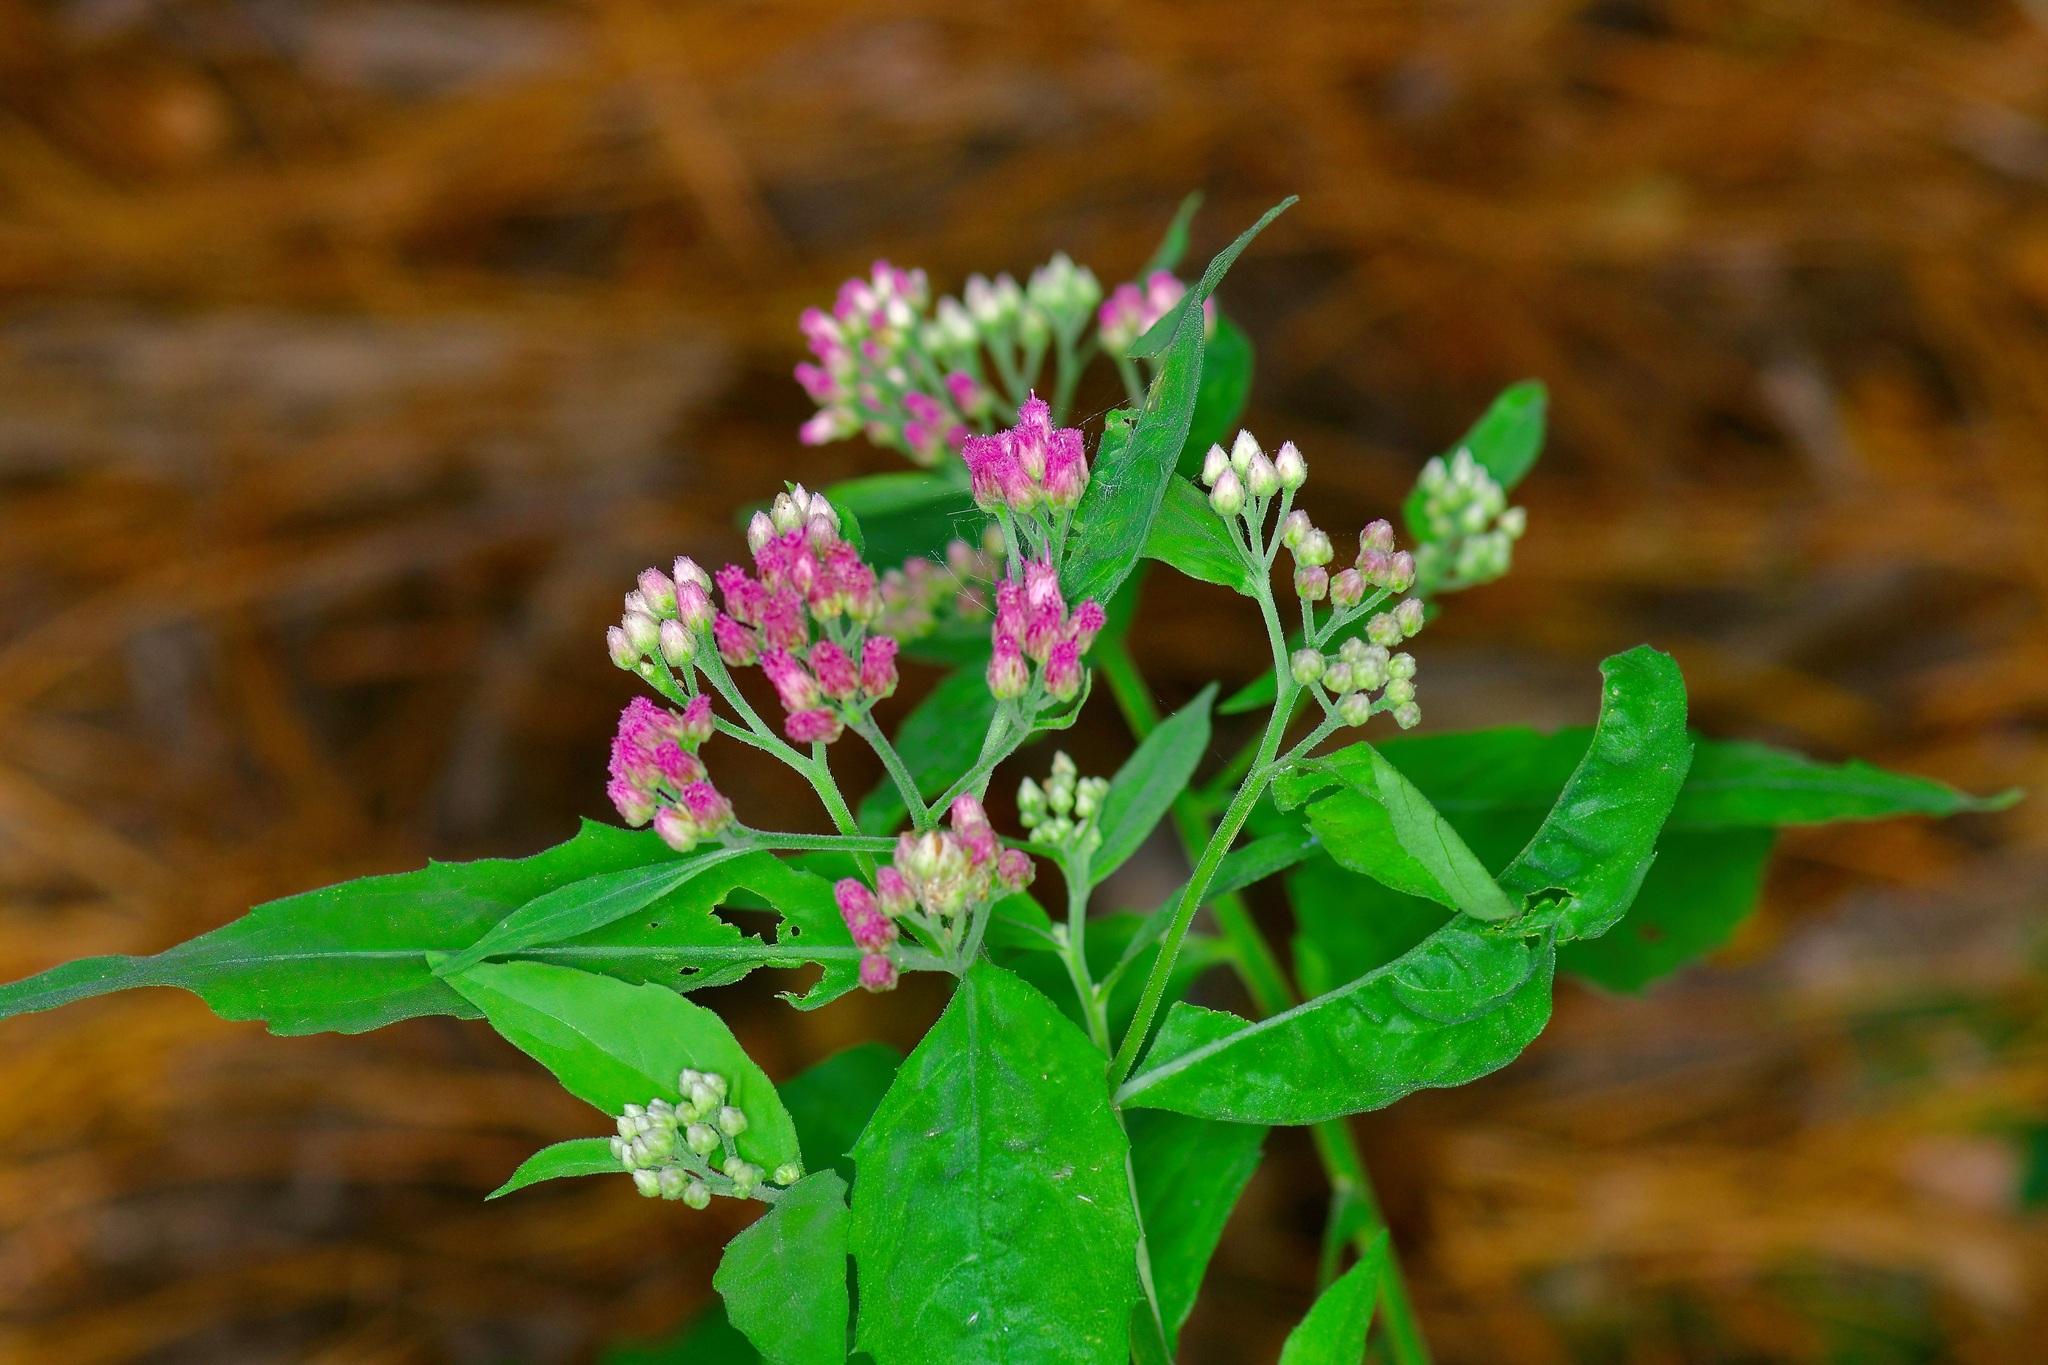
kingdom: Plantae
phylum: Tracheophyta
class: Magnoliopsida
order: Asterales
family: Asteraceae
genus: Pluchea
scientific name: Pluchea odorata
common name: Saltmarsh fleabane
